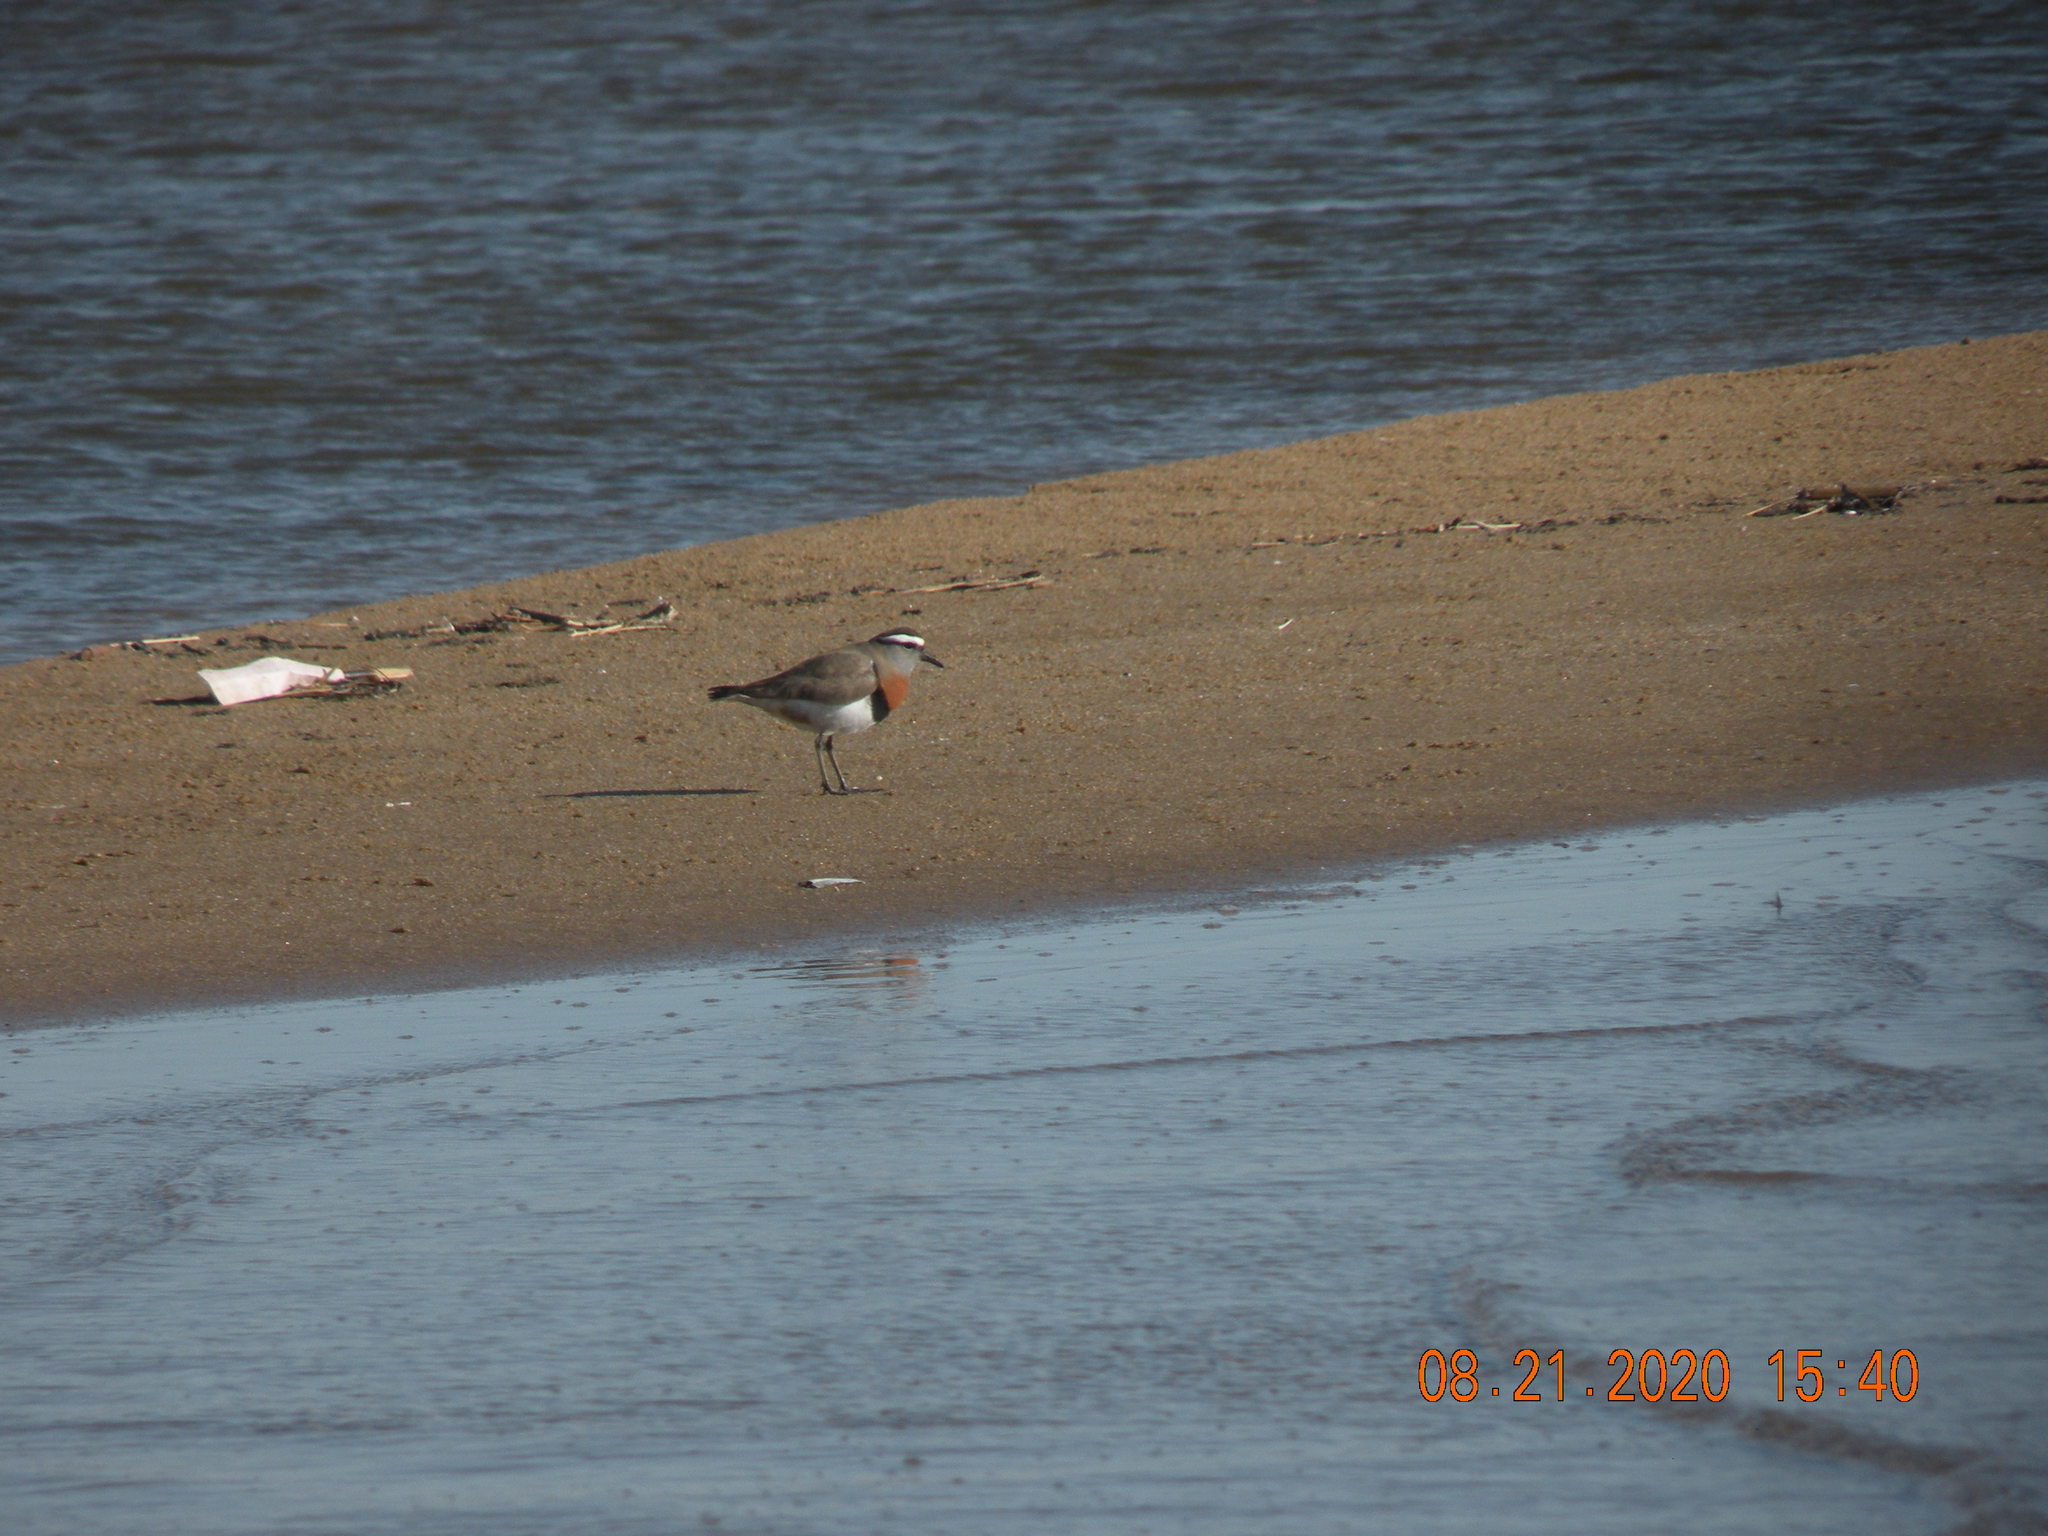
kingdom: Animalia
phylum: Chordata
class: Aves
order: Charadriiformes
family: Charadriidae
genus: Charadrius
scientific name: Charadrius modestus
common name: Rufous-chested plover
